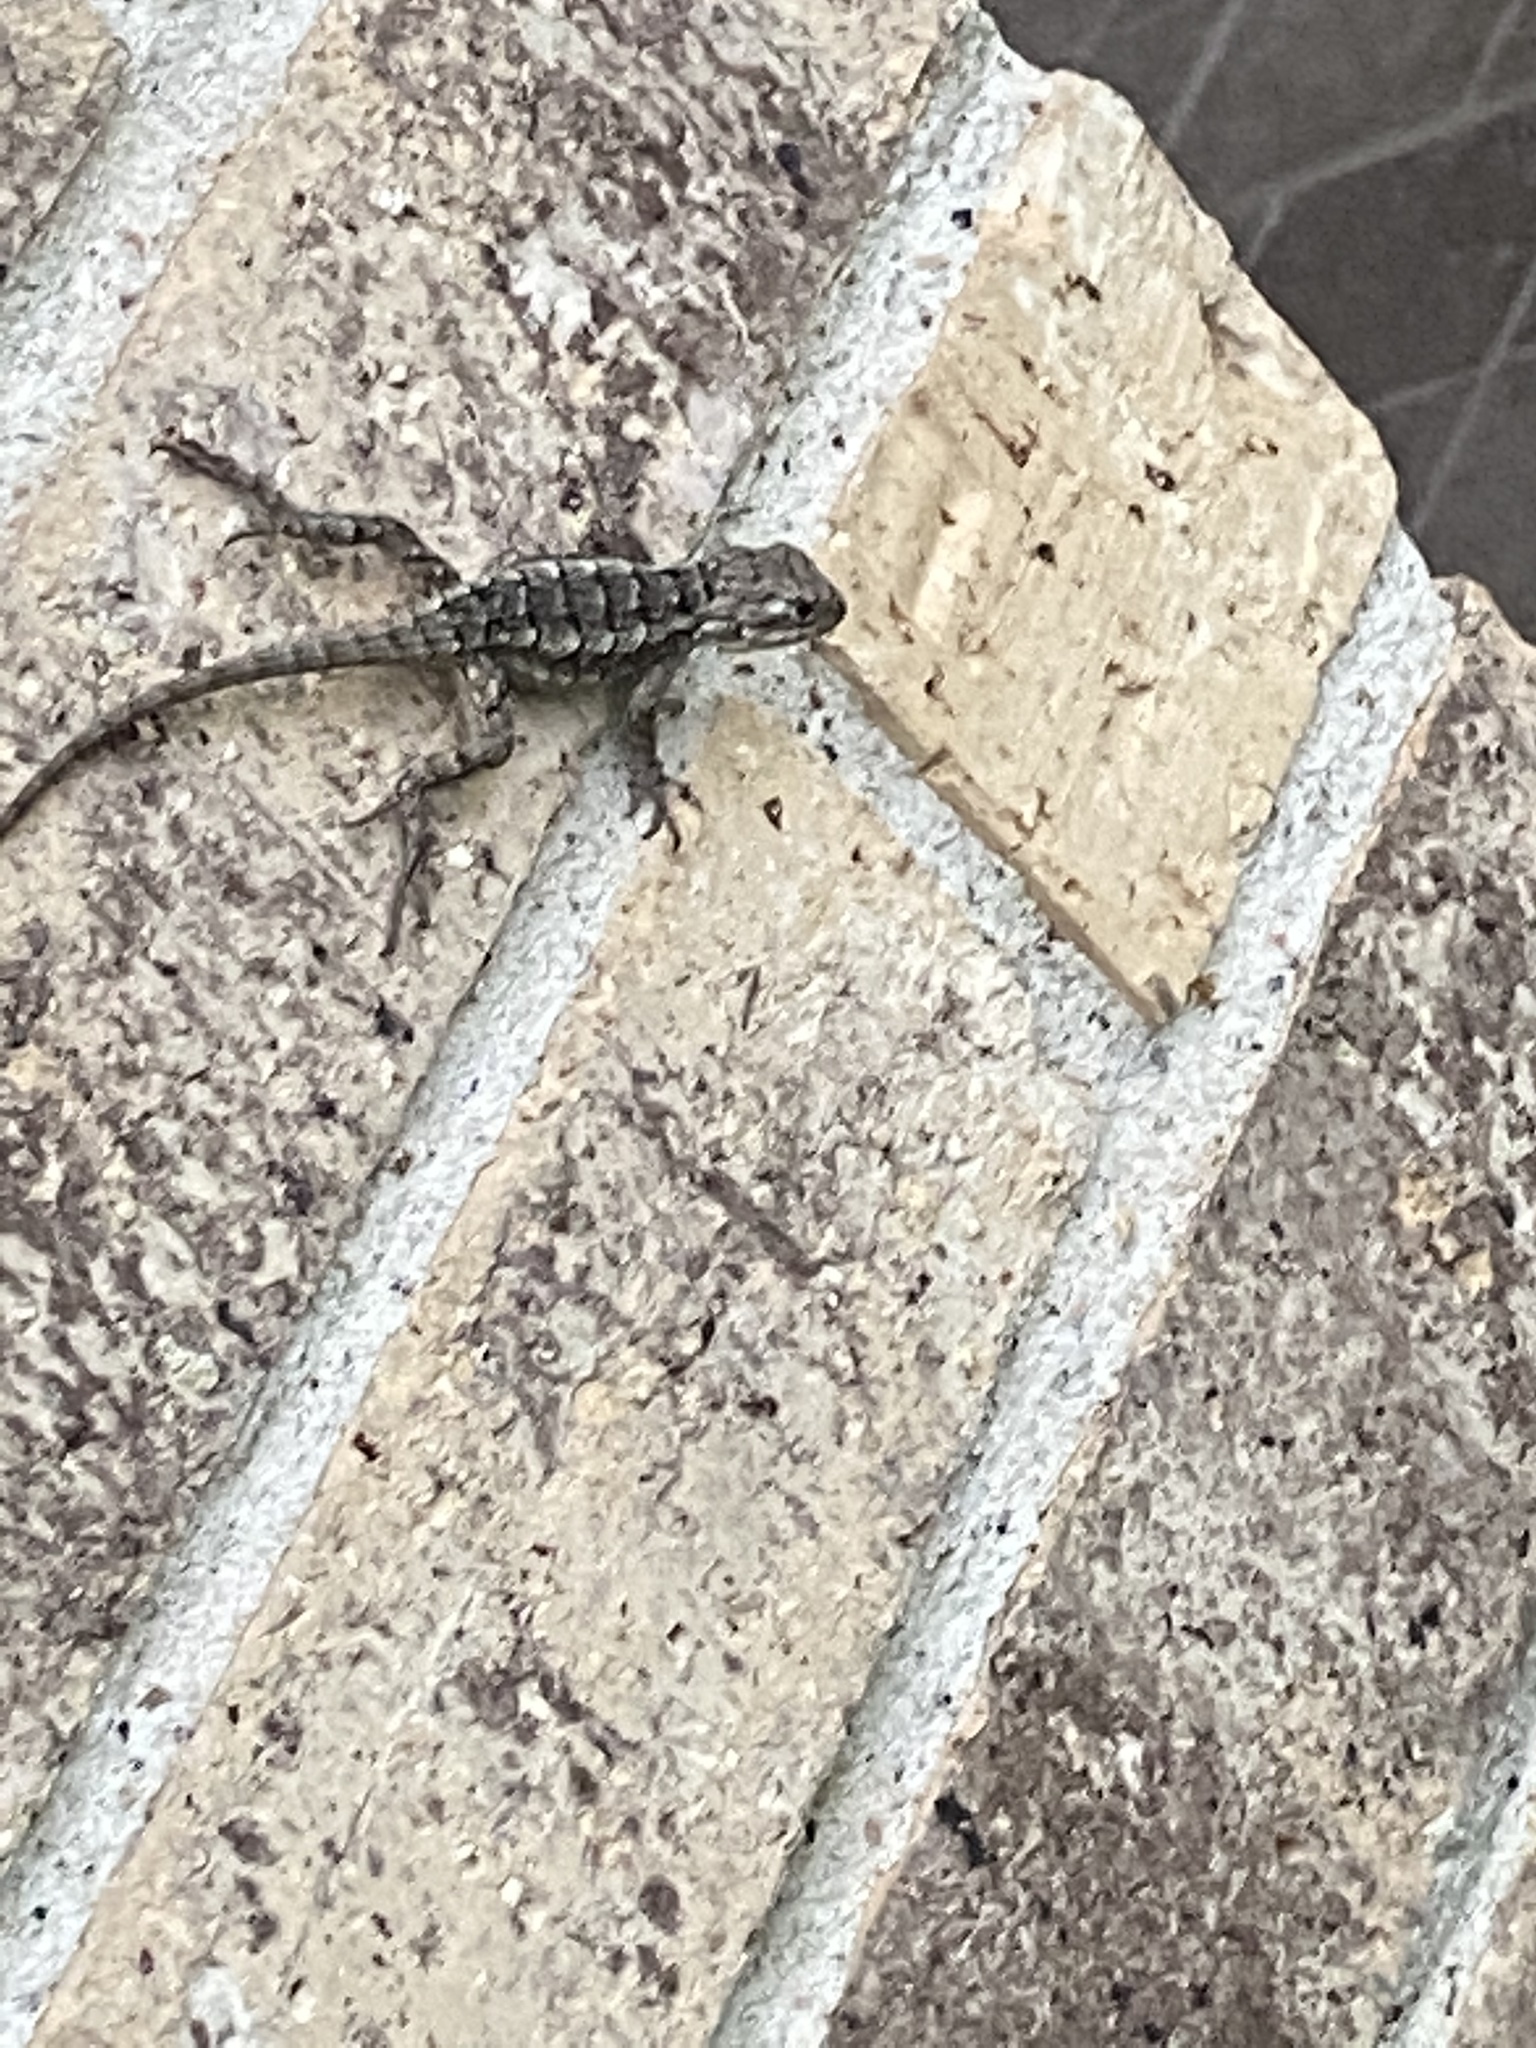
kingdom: Animalia
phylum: Chordata
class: Squamata
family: Phrynosomatidae
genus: Sceloporus
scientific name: Sceloporus olivaceus
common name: Texas spiny lizard
